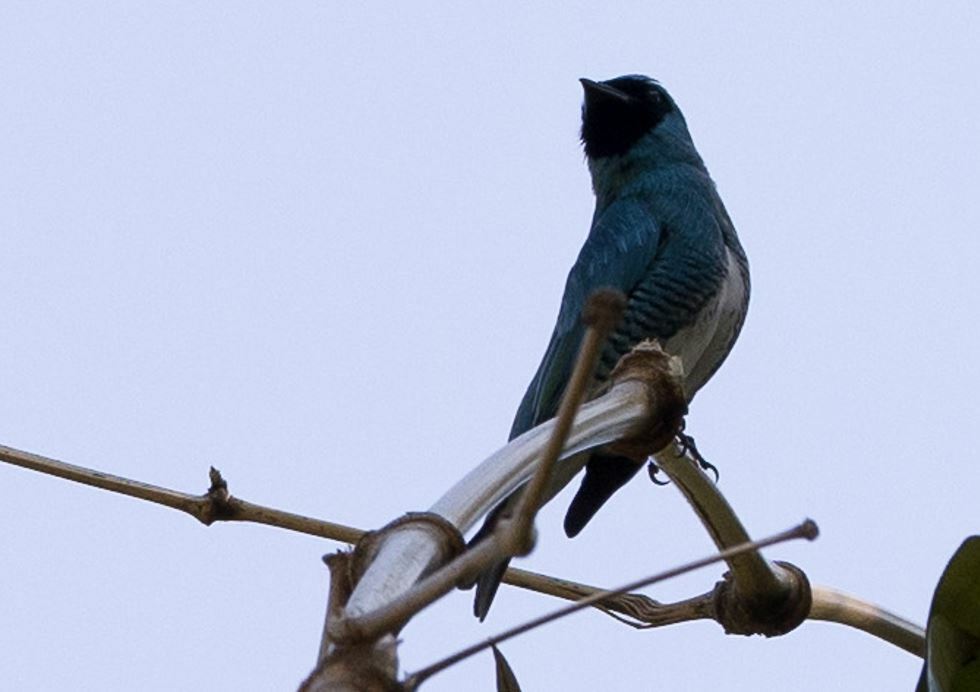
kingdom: Animalia
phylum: Chordata
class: Aves
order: Passeriformes
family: Thraupidae
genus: Tersina
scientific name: Tersina viridis
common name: Swallow tanager
